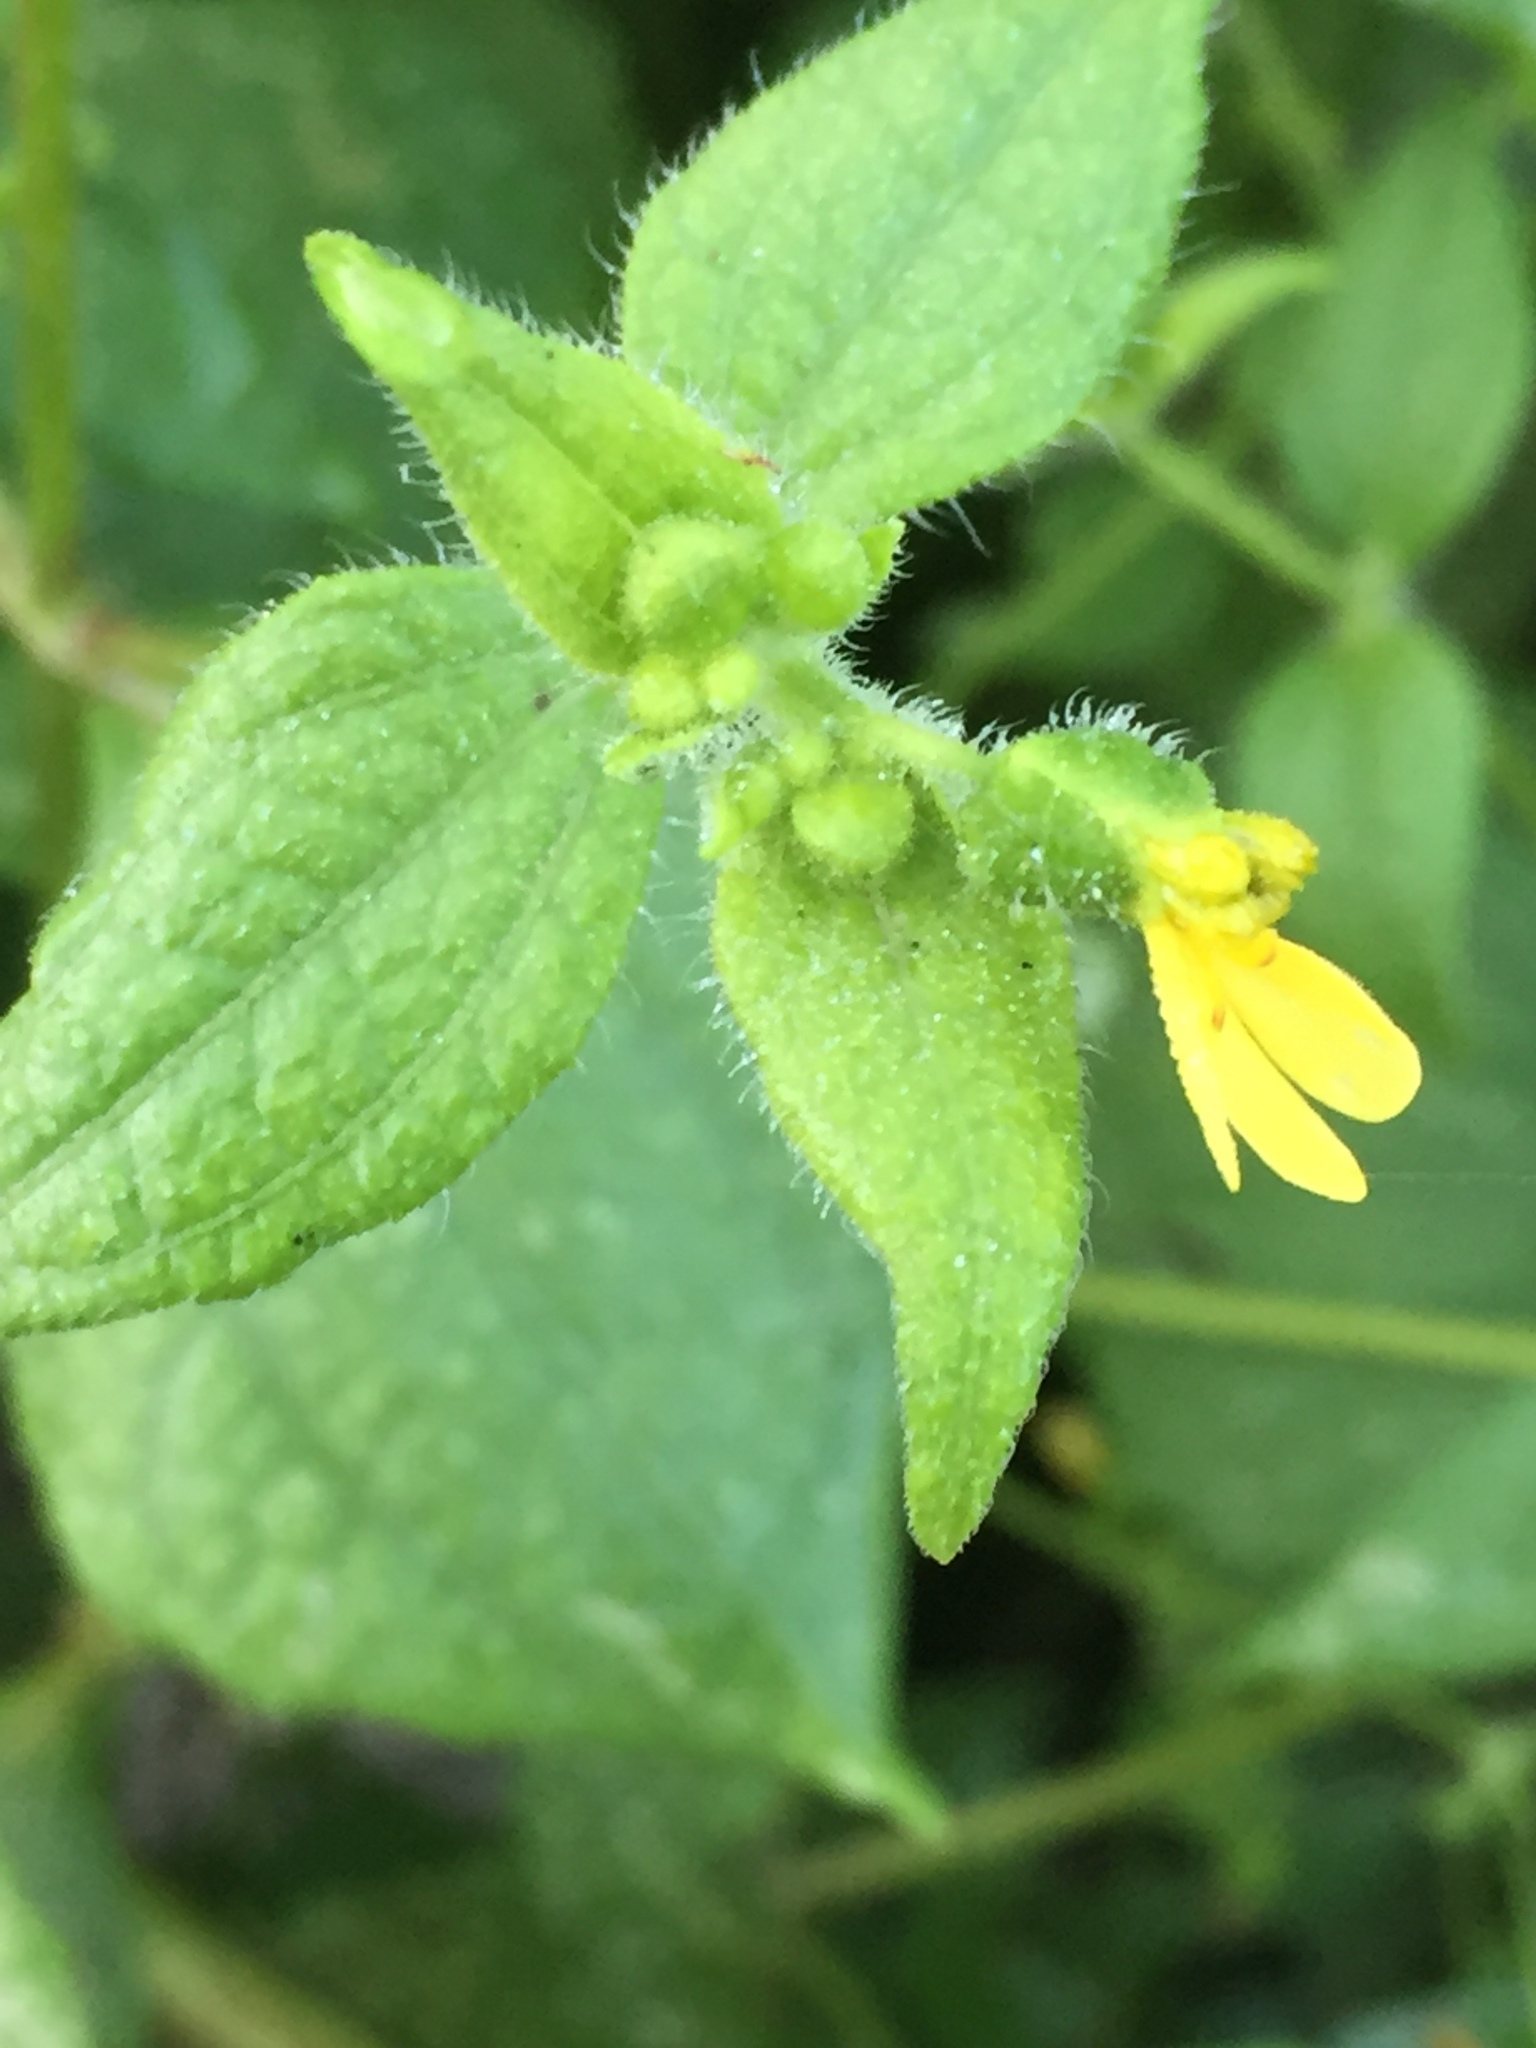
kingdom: Plantae
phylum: Tracheophyta
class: Magnoliopsida
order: Asterales
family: Asteraceae
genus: Milleria
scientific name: Milleria quinqueflora
